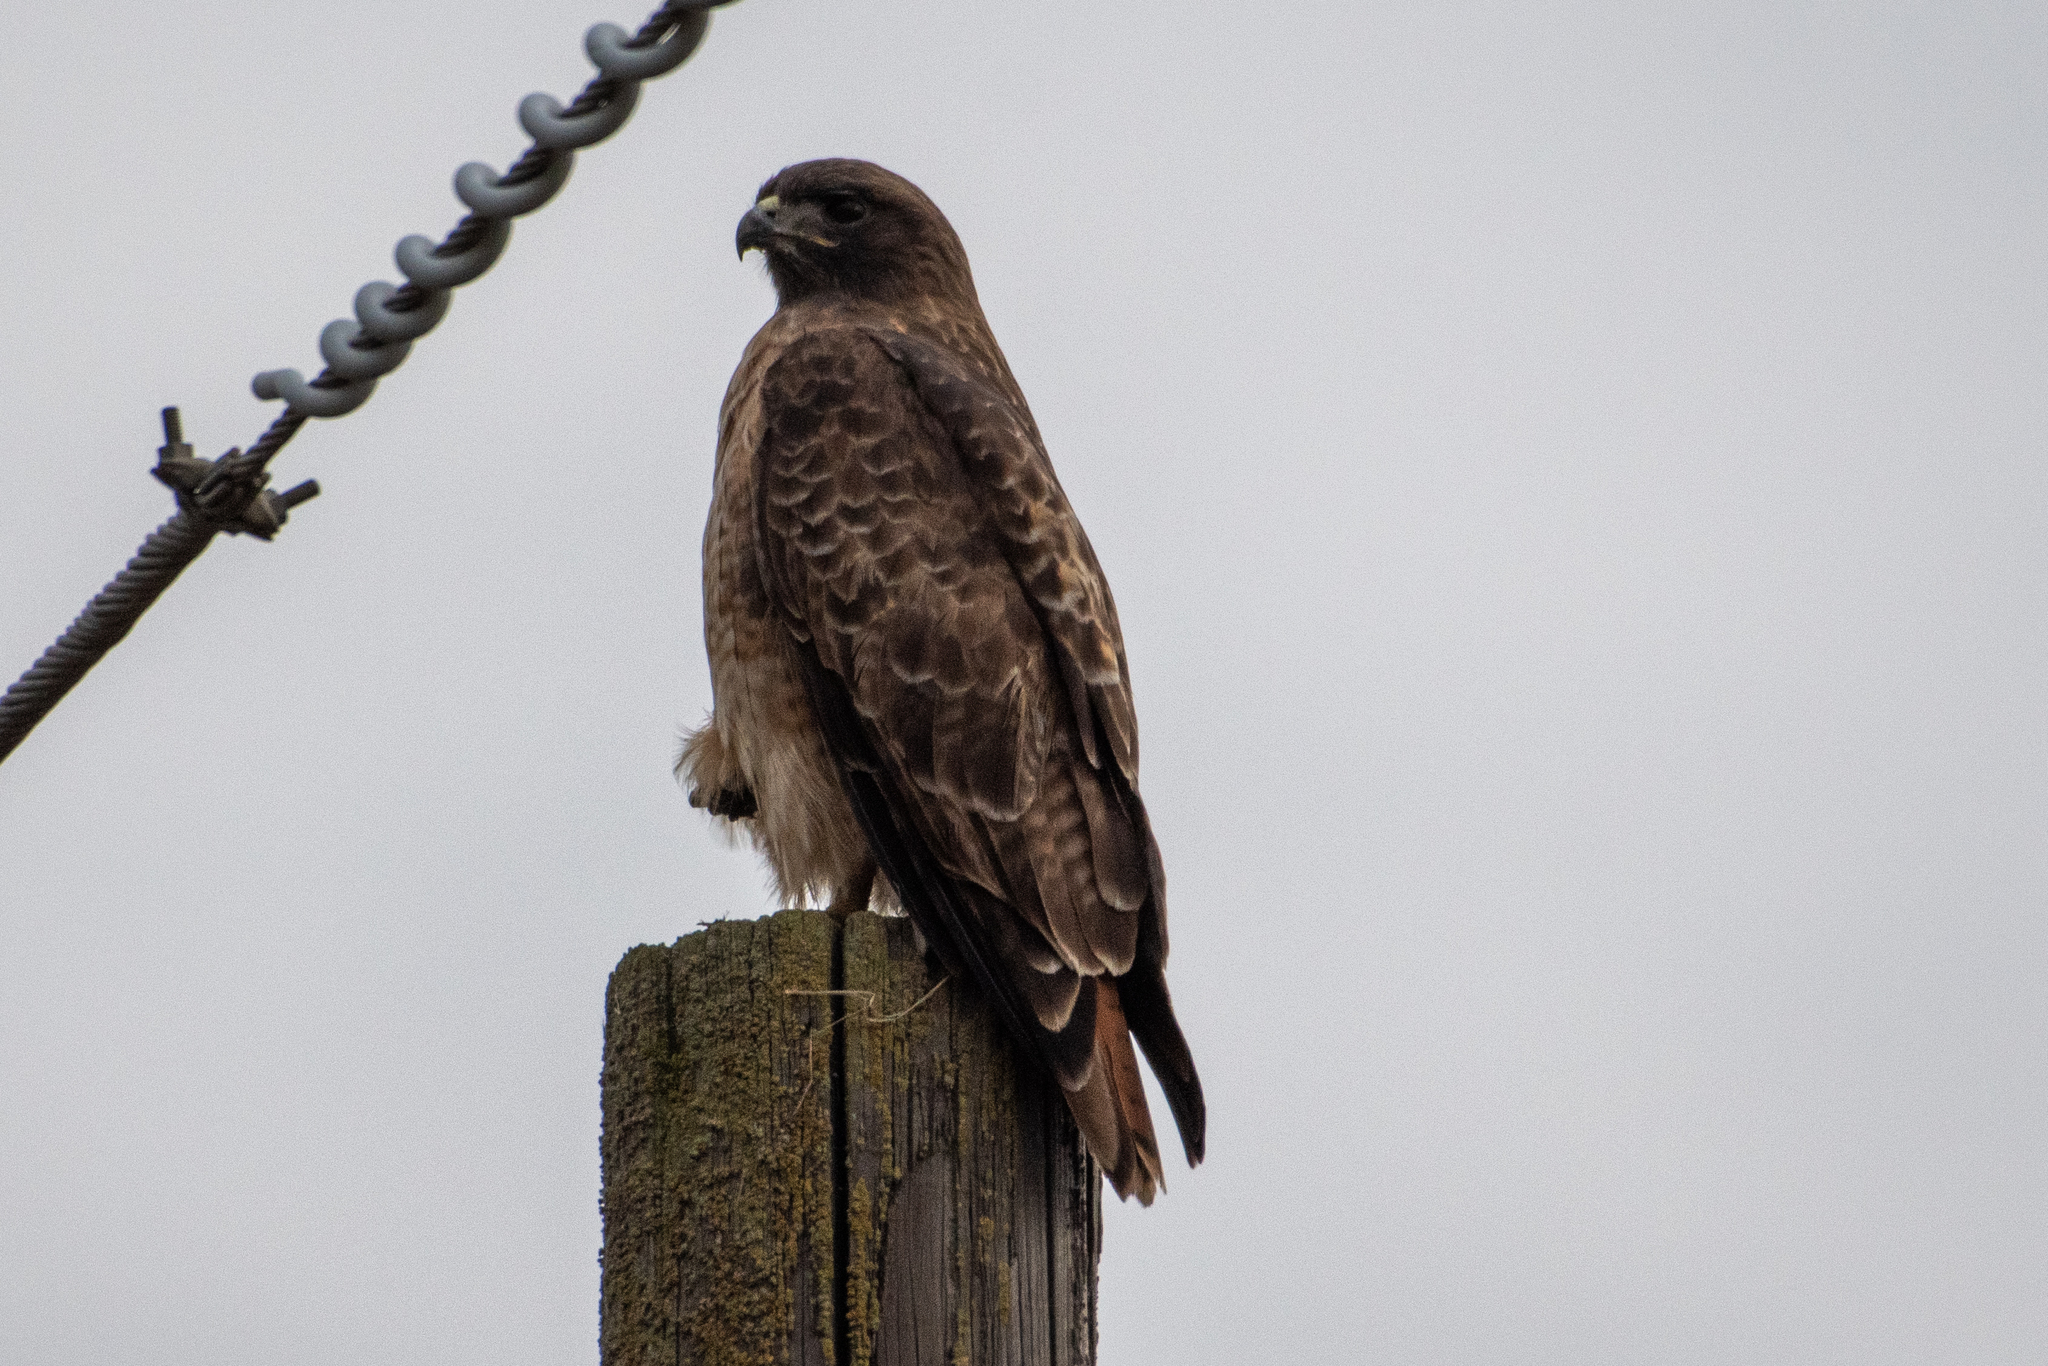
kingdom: Animalia
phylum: Chordata
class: Aves
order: Accipitriformes
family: Accipitridae
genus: Buteo
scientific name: Buteo jamaicensis
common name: Red-tailed hawk
